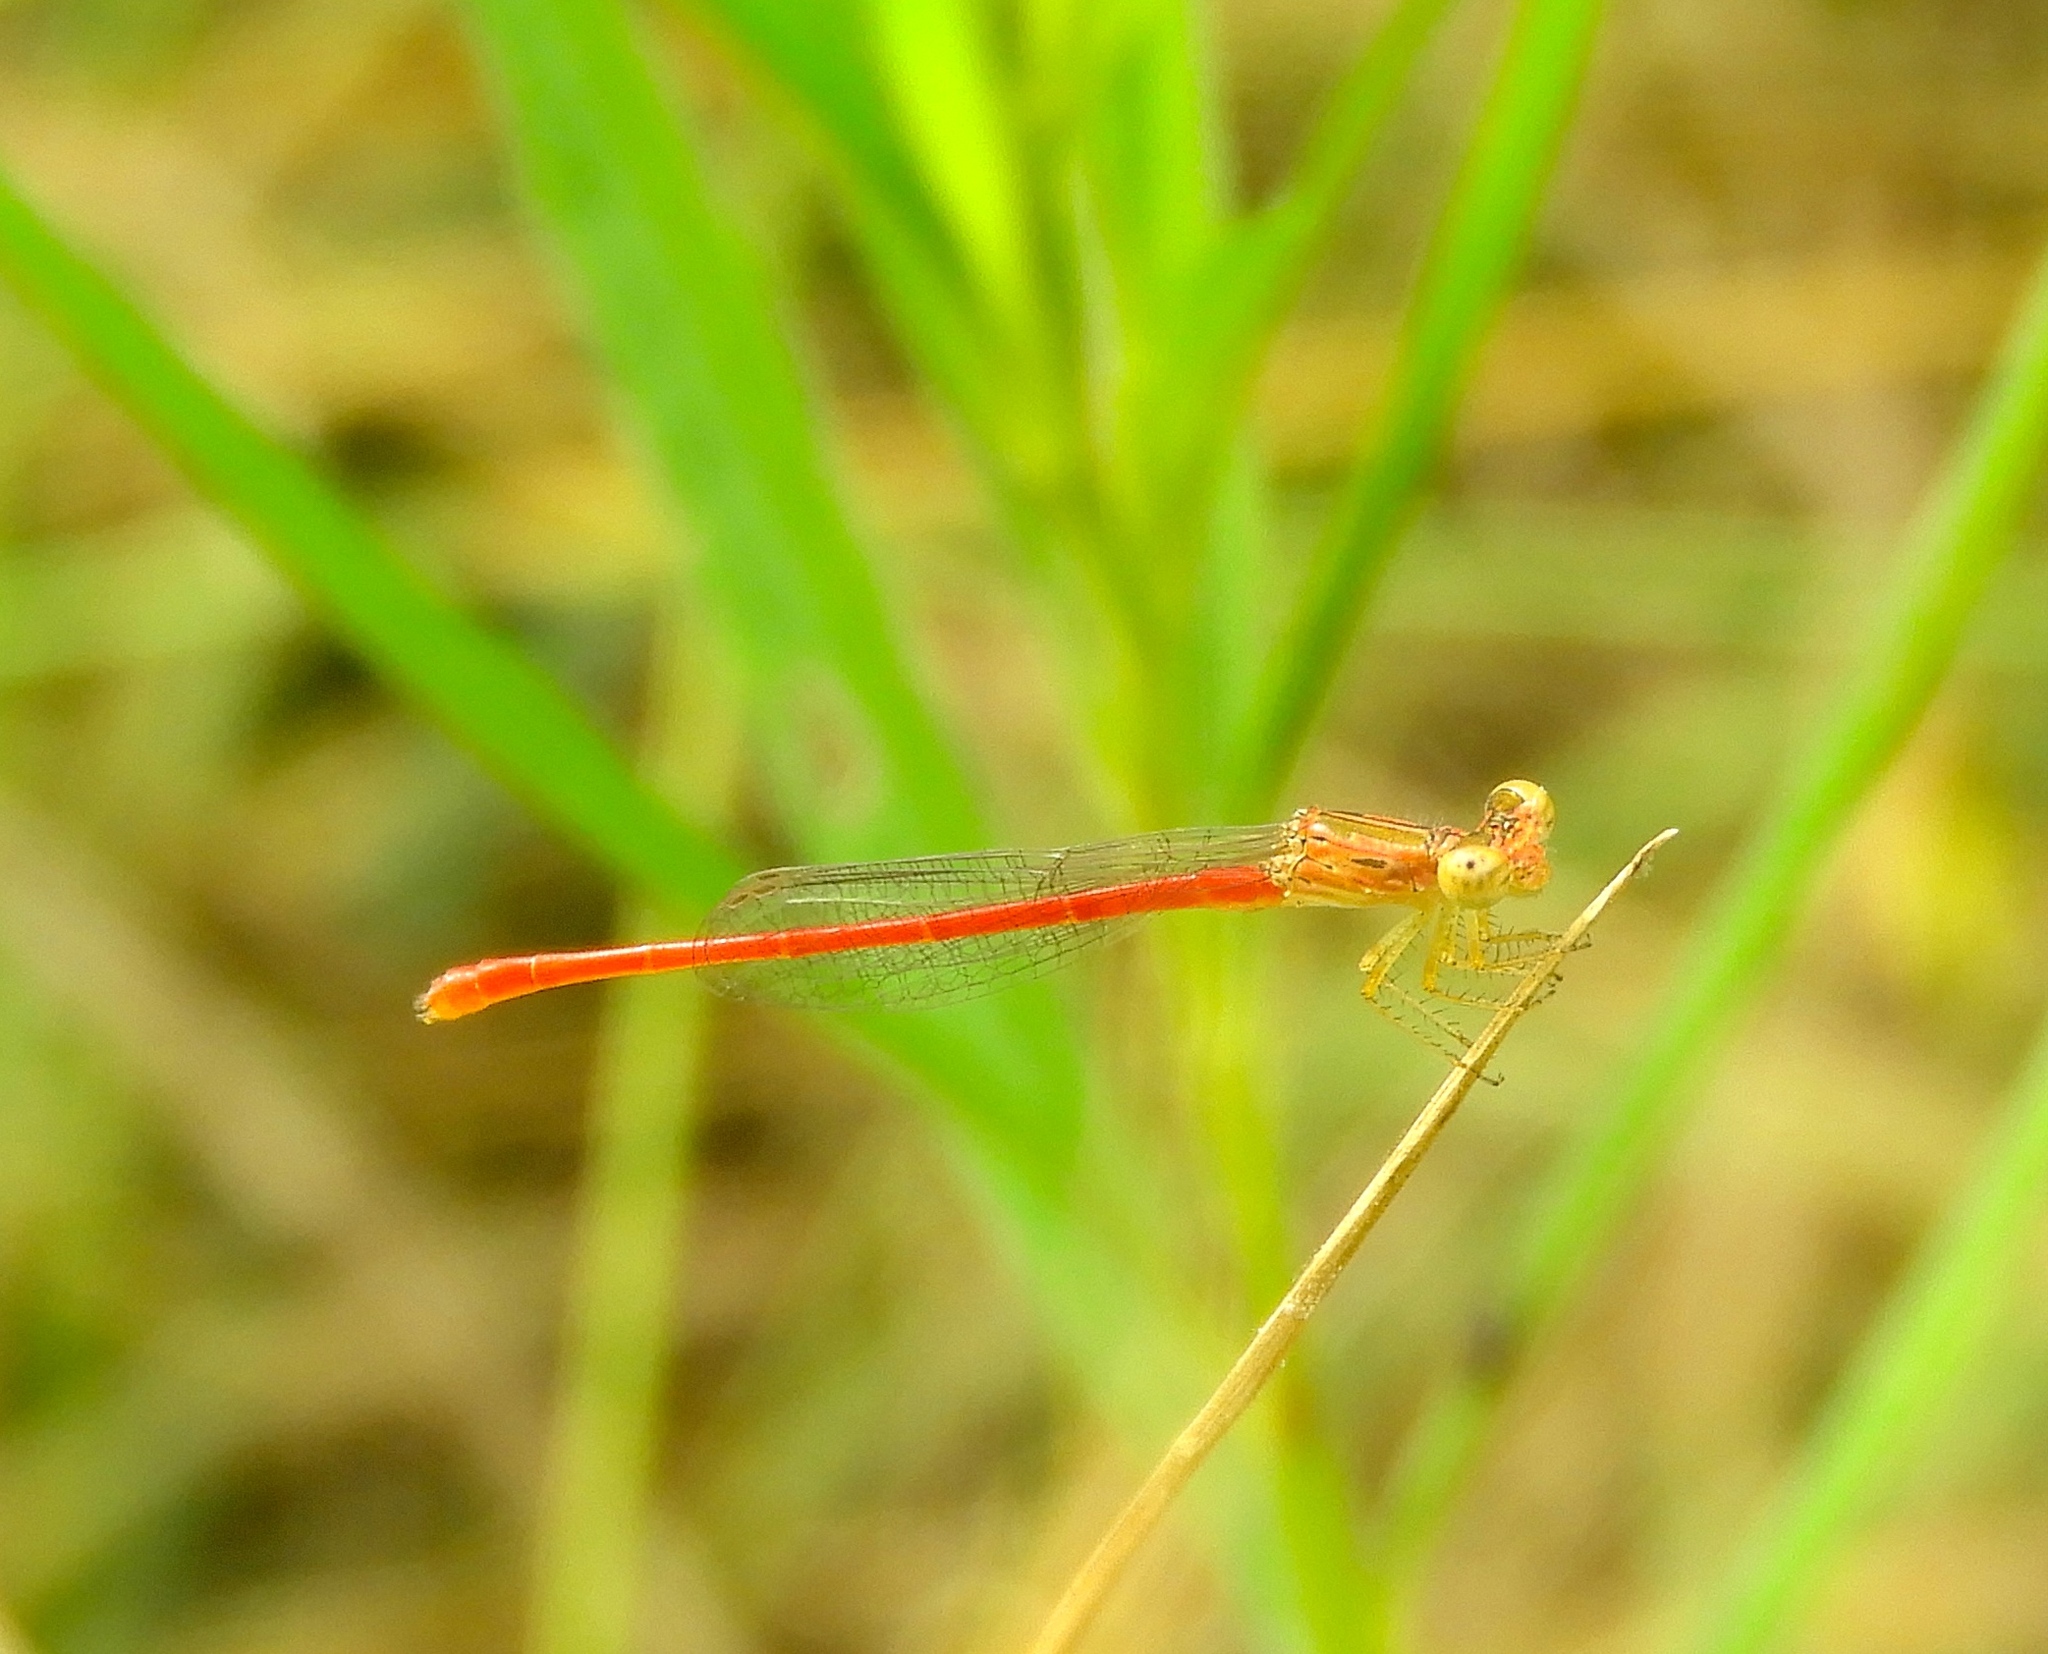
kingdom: Animalia
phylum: Arthropoda
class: Insecta
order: Odonata
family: Coenagrionidae
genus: Telebasis
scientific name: Telebasis salva
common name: Desert firetail
